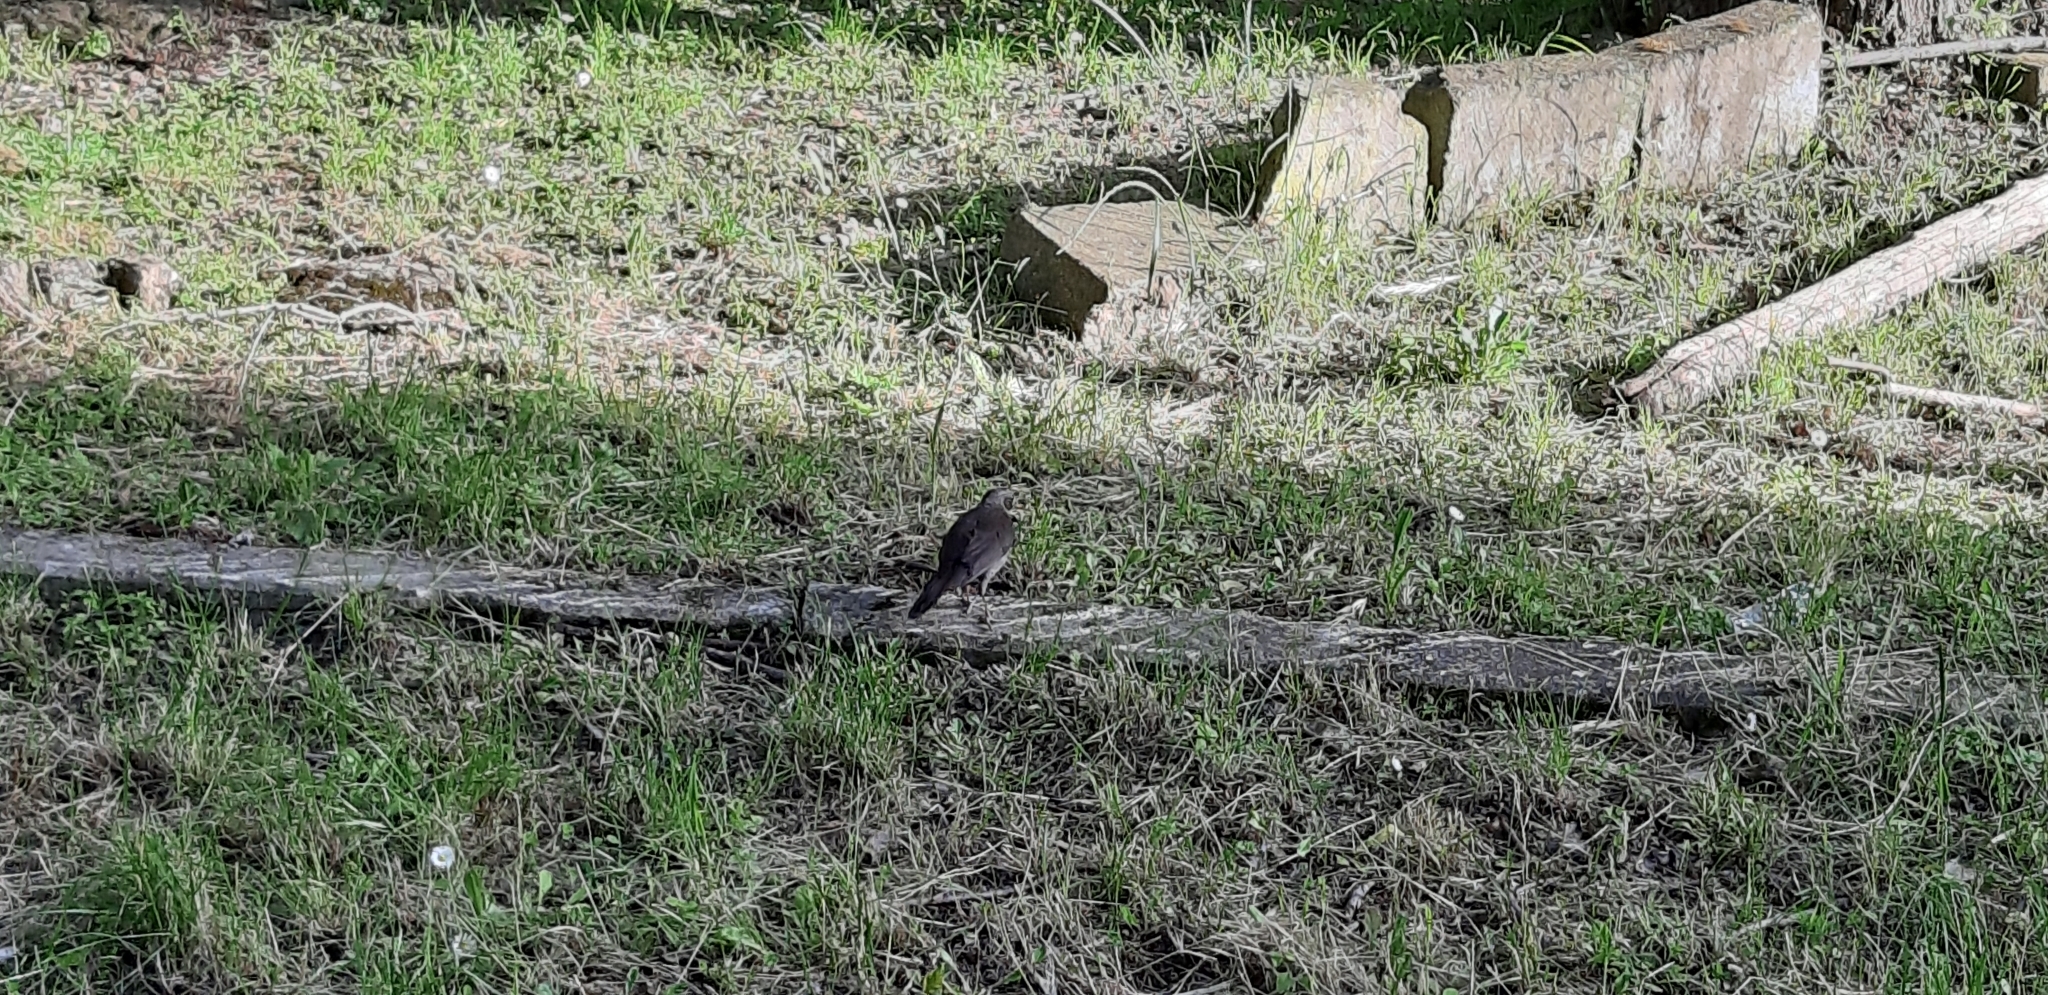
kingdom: Animalia
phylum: Chordata
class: Aves
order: Passeriformes
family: Turdidae
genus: Turdus
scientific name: Turdus merula
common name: Common blackbird
